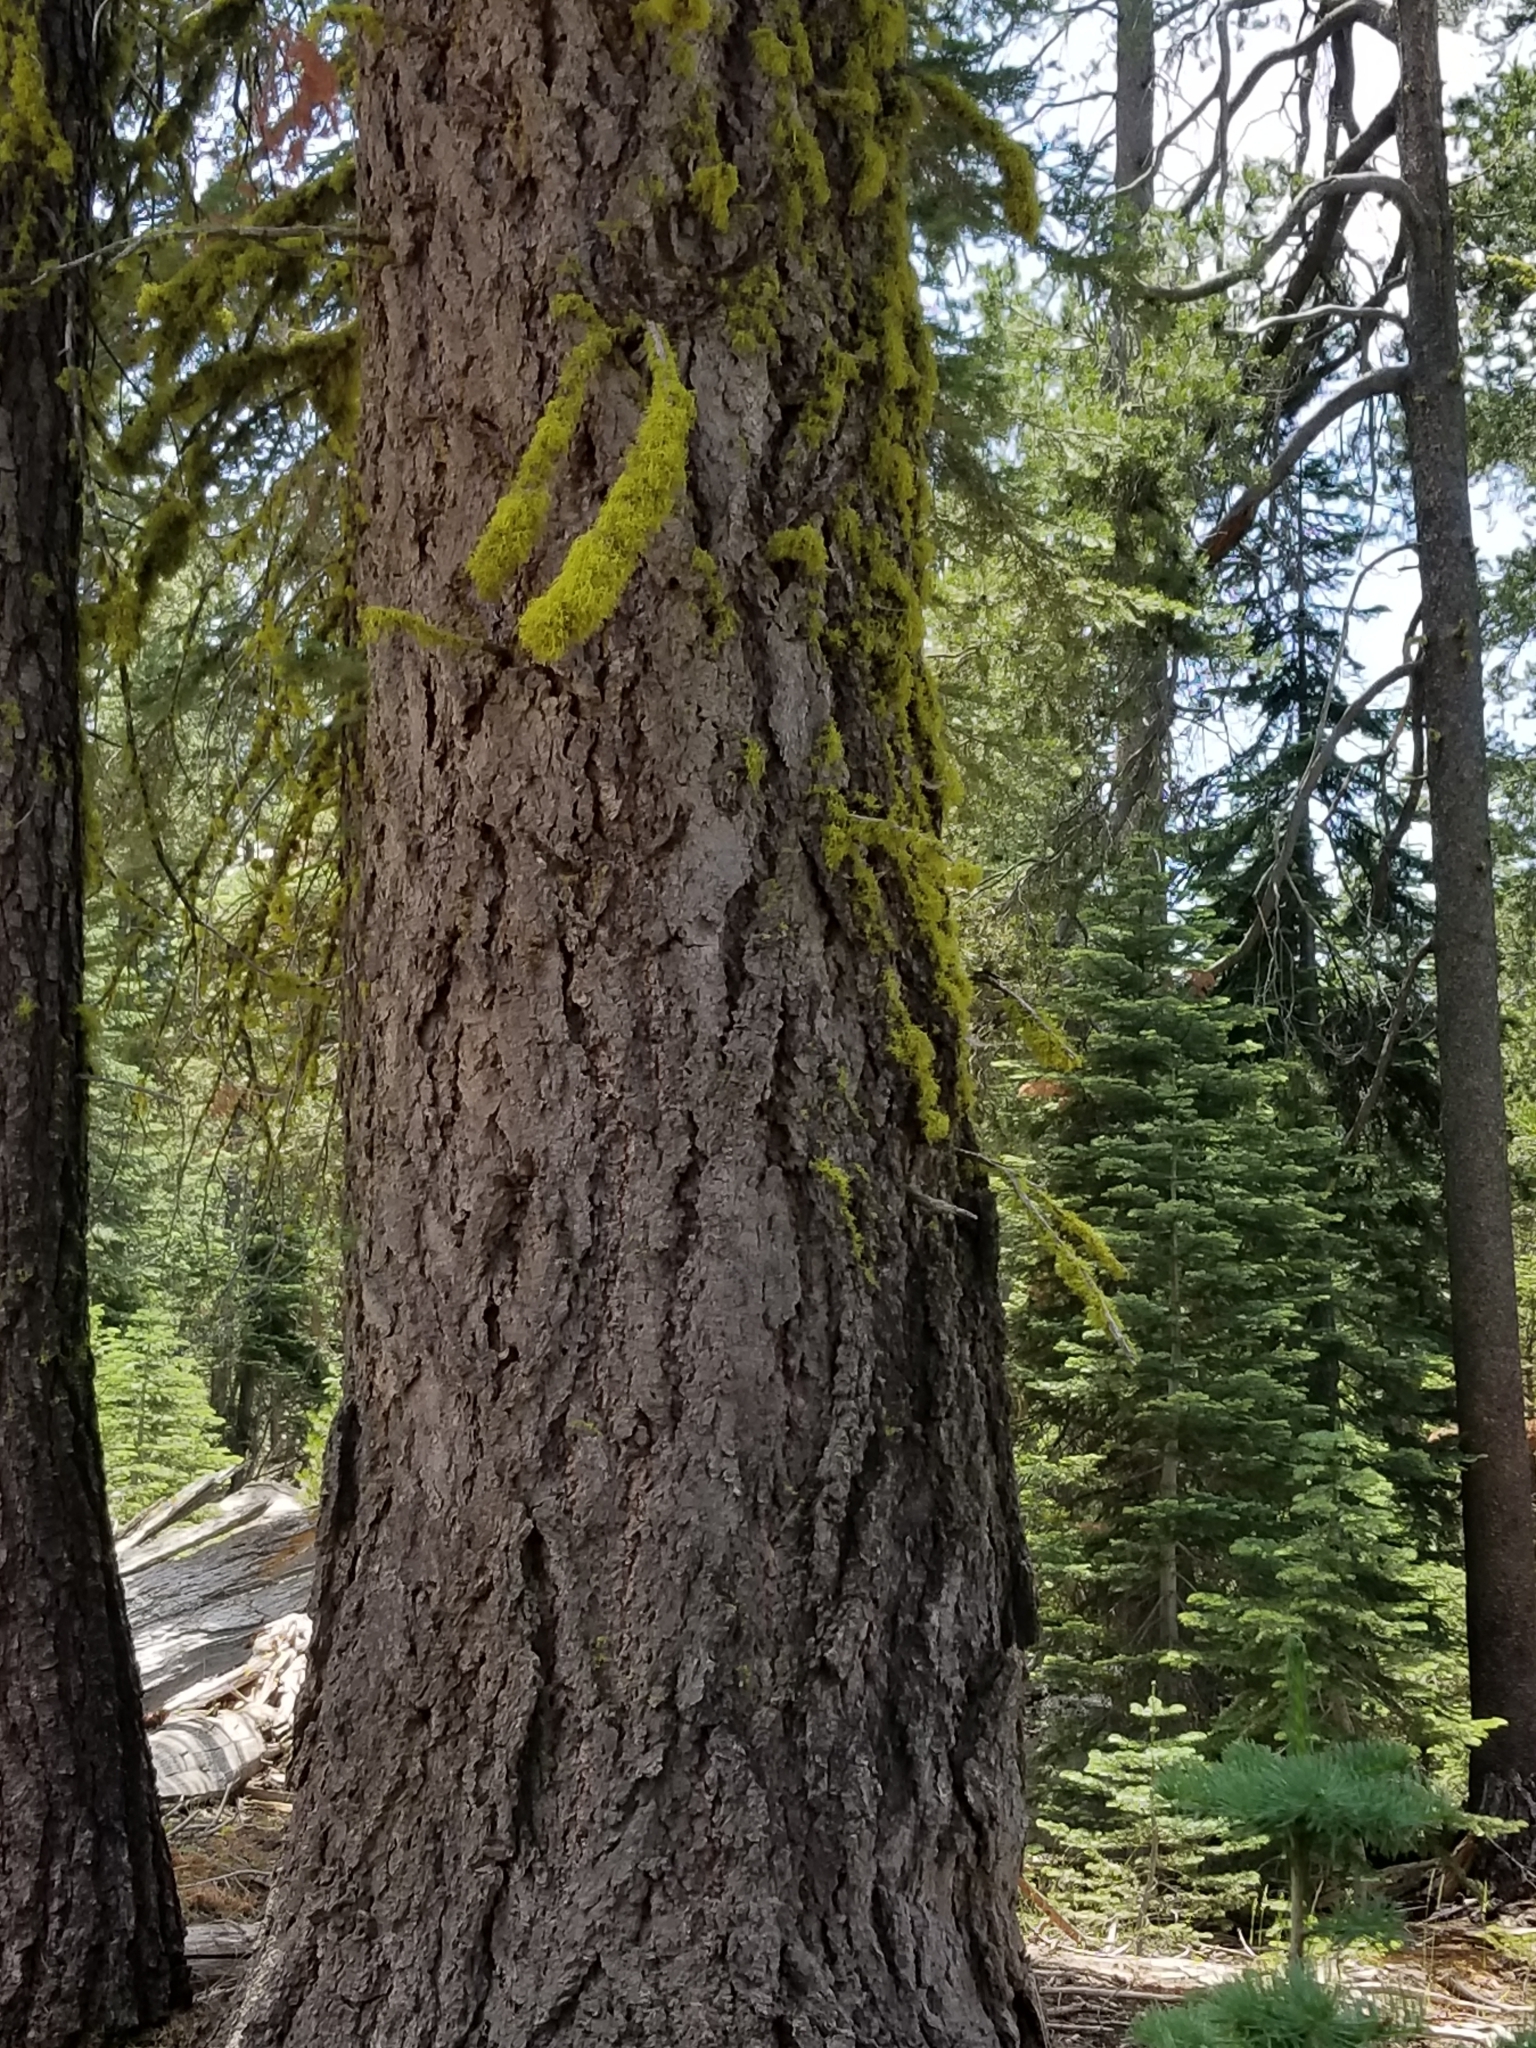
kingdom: Plantae
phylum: Tracheophyta
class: Pinopsida
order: Pinales
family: Pinaceae
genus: Abies
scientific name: Abies concolor
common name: Colorado fir
